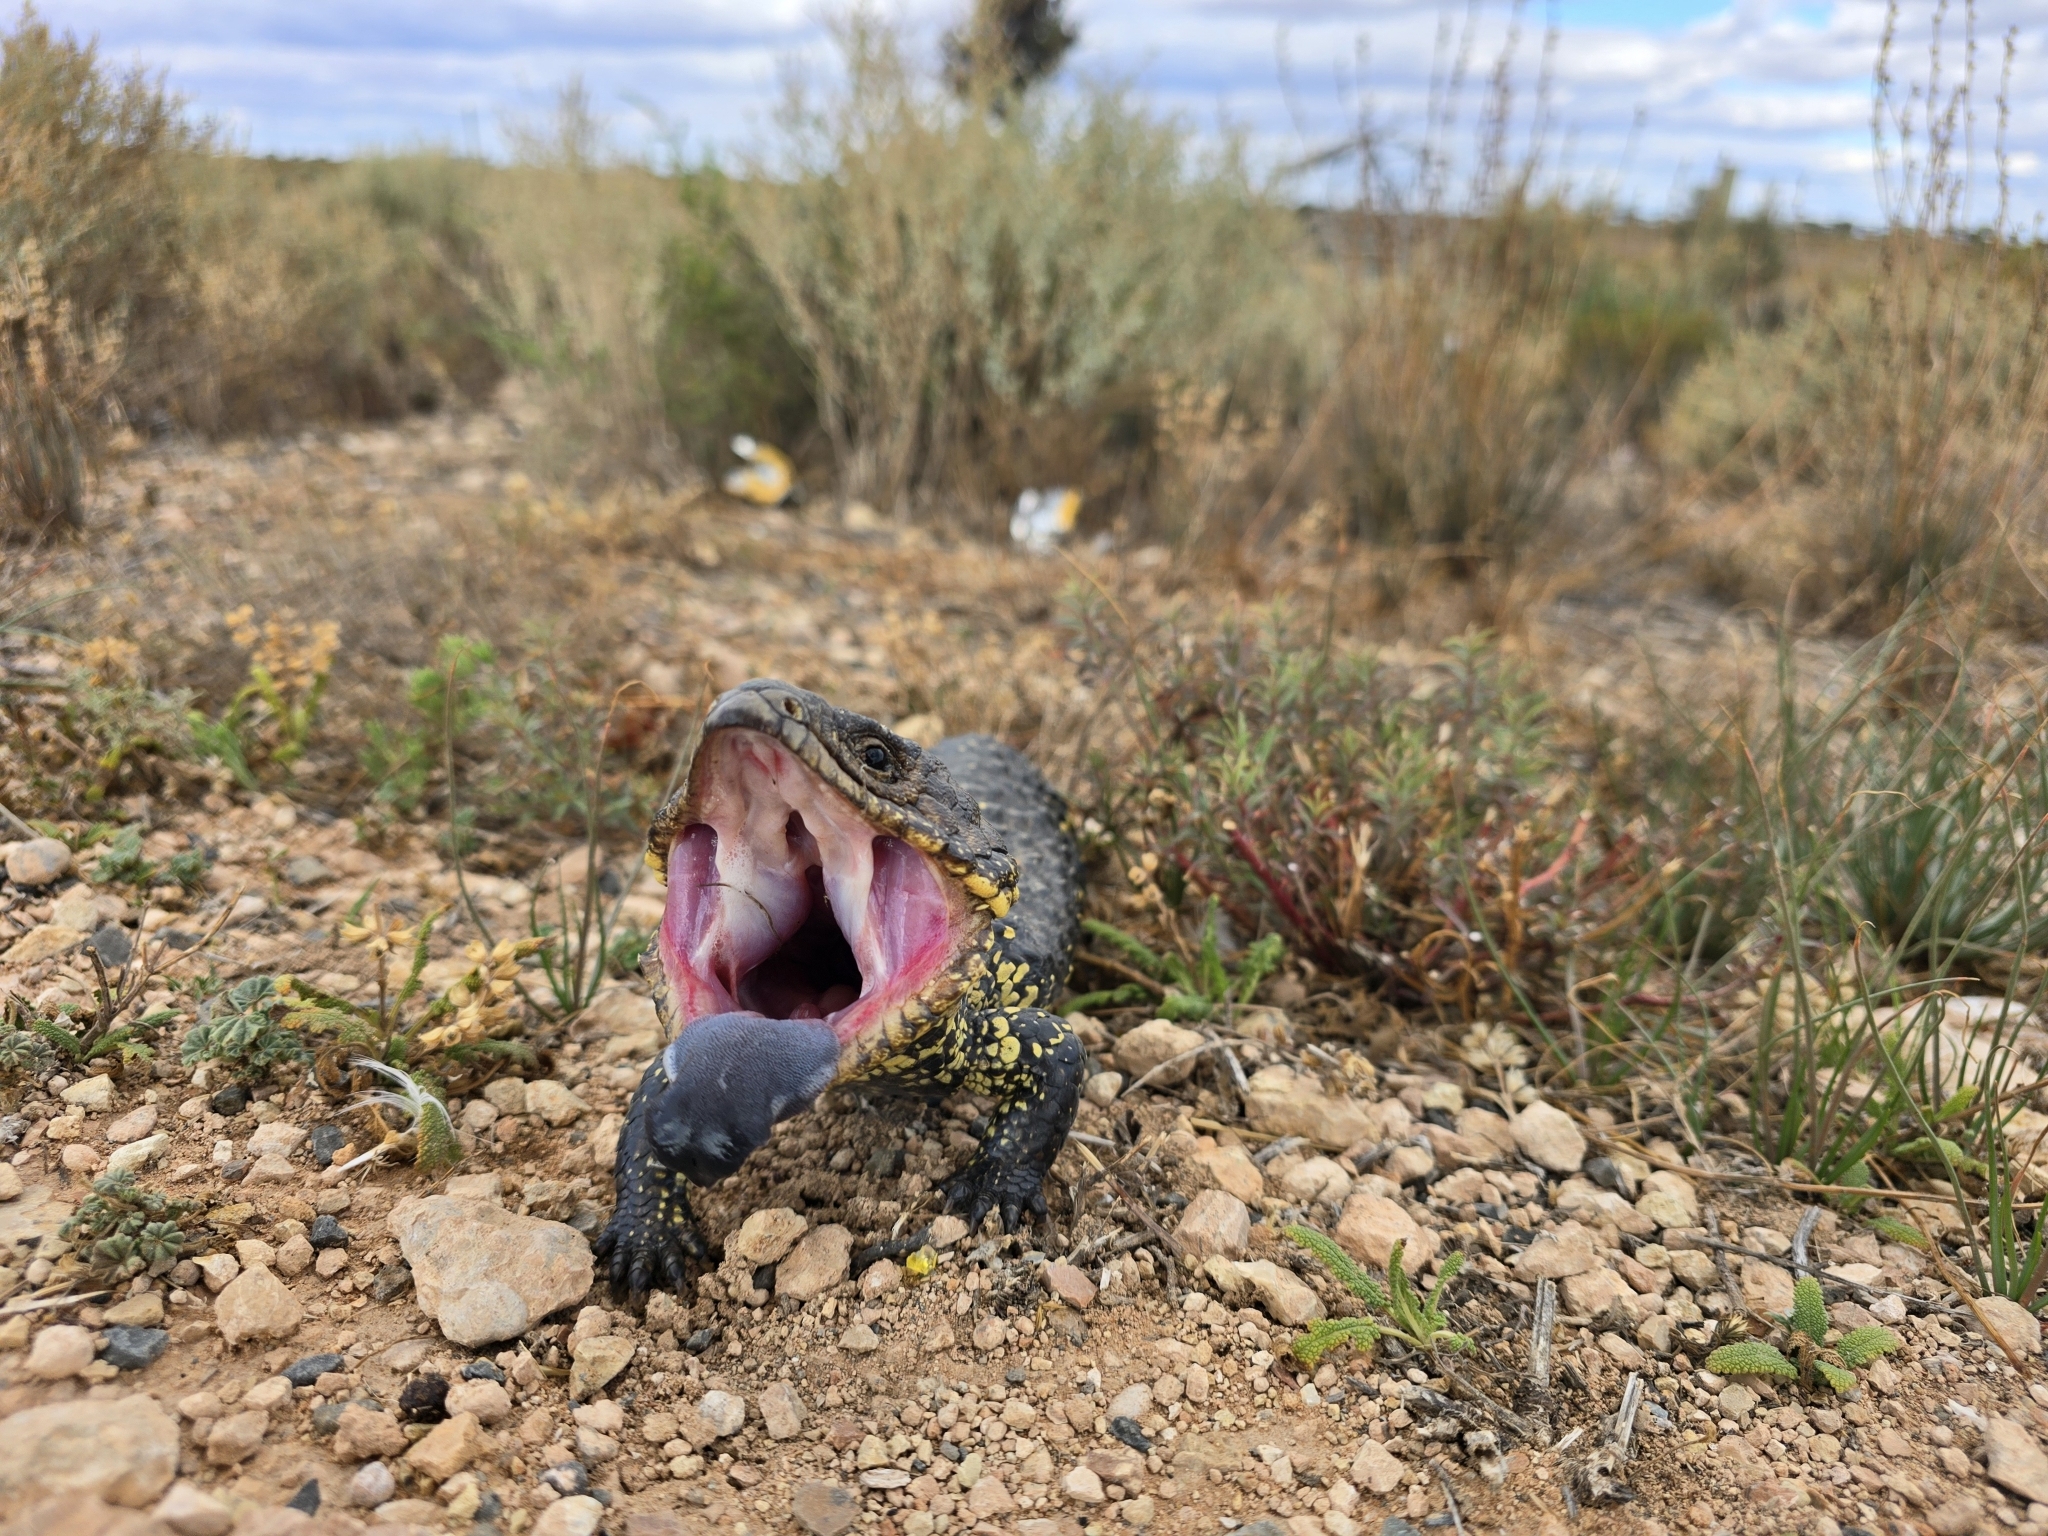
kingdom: Animalia
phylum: Chordata
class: Squamata
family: Scincidae
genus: Tiliqua
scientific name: Tiliqua rugosa
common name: Pinecone lizard
